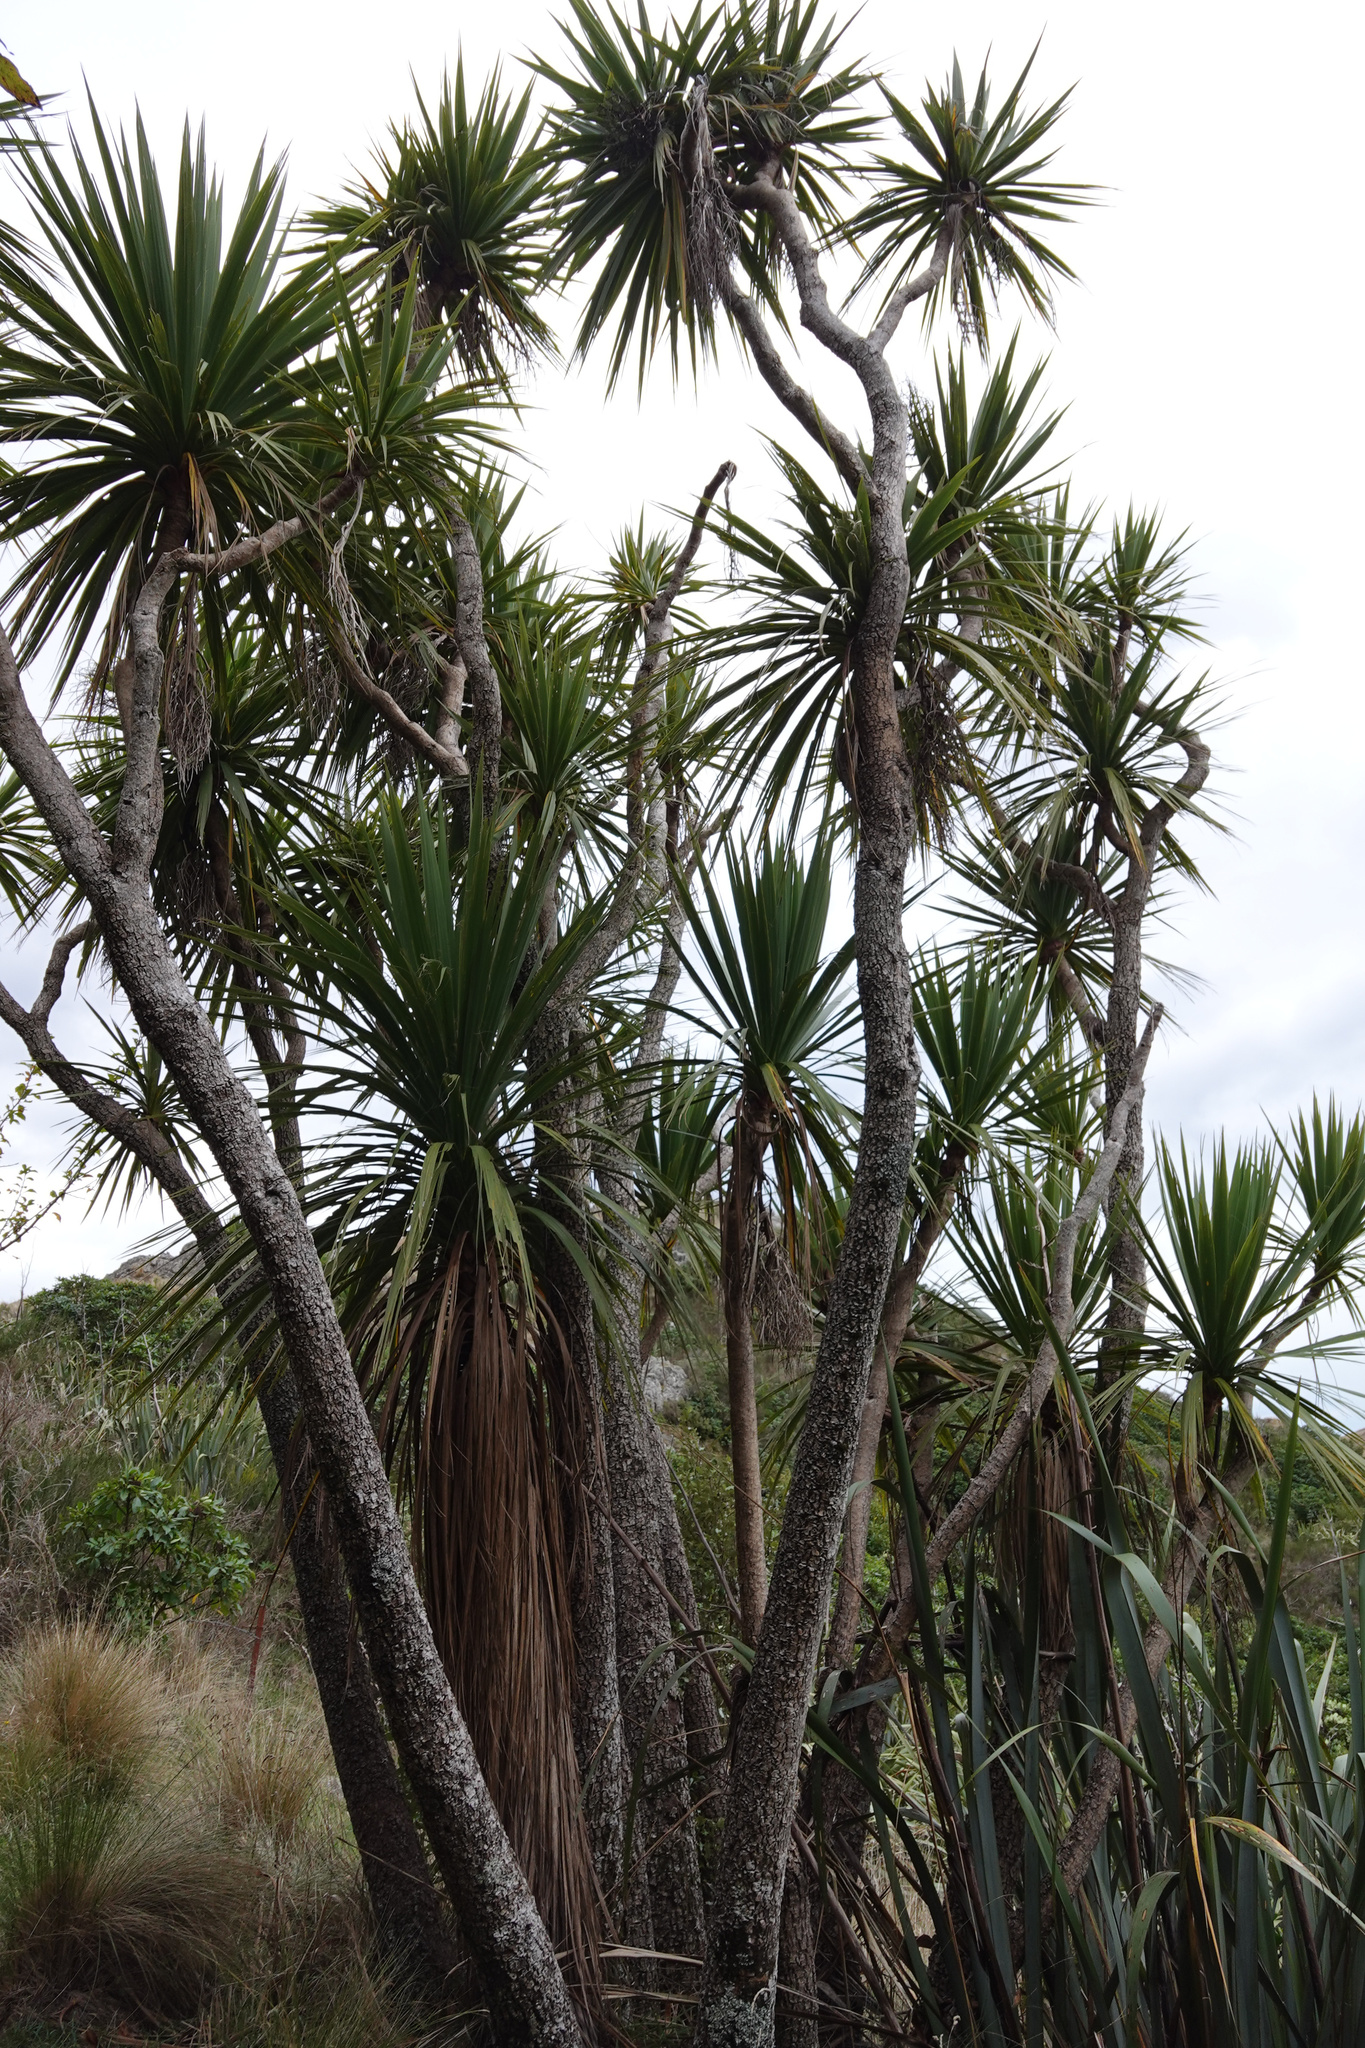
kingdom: Plantae
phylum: Tracheophyta
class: Liliopsida
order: Asparagales
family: Asparagaceae
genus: Cordyline
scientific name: Cordyline australis
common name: Cabbage-palm
